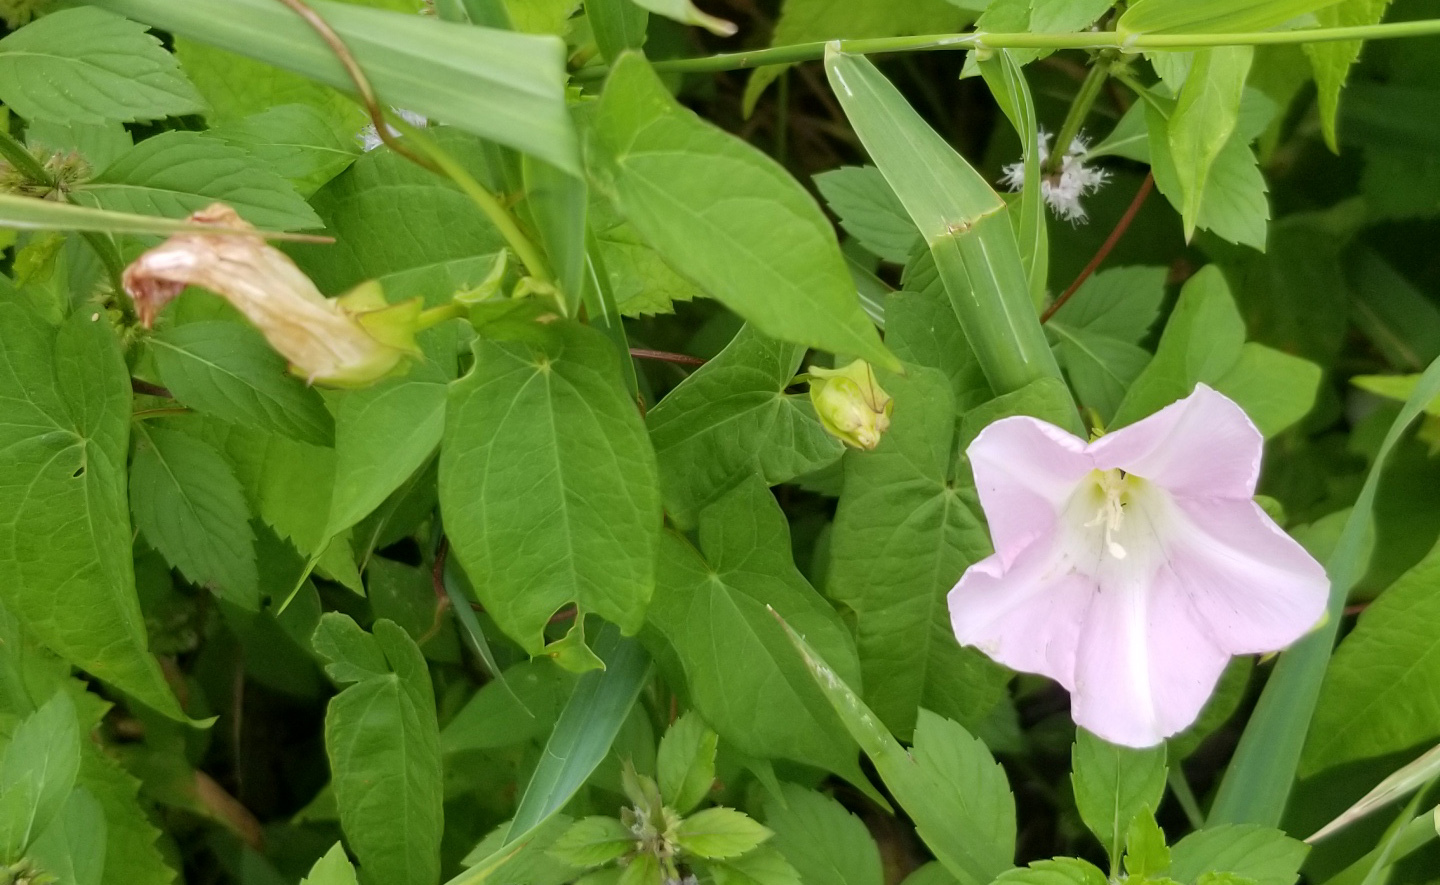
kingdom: Plantae
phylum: Tracheophyta
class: Magnoliopsida
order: Solanales
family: Convolvulaceae
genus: Calystegia
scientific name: Calystegia sepium
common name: Hedge bindweed
